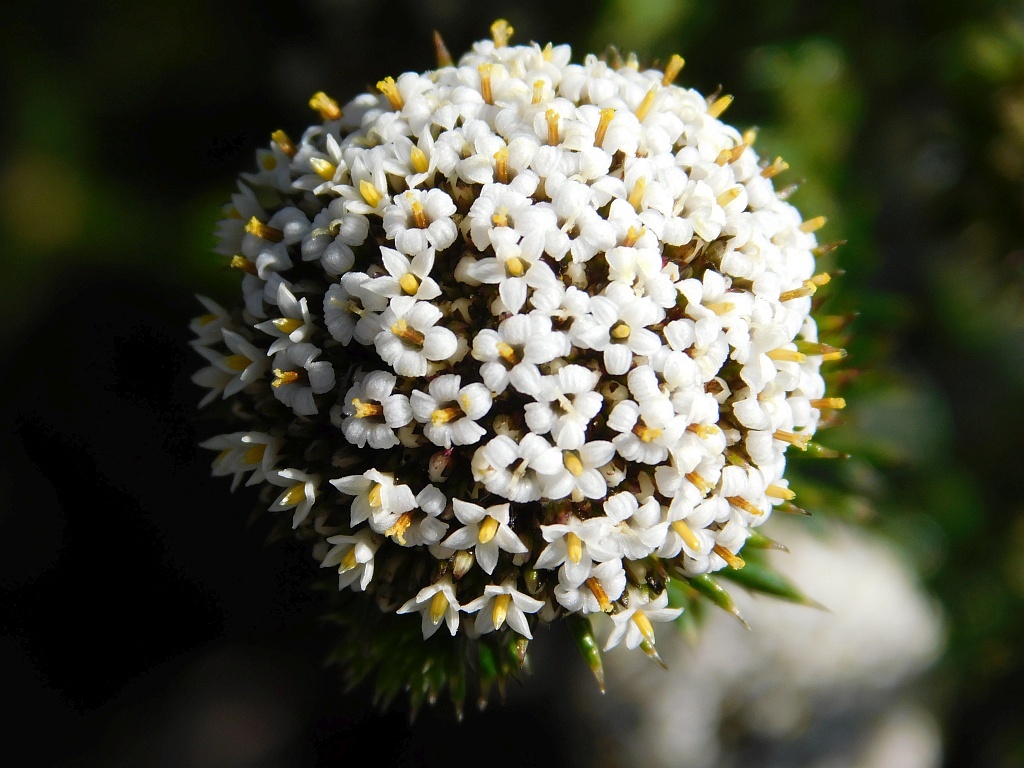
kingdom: Plantae
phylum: Tracheophyta
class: Magnoliopsida
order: Asterales
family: Asteraceae
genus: Stoebe
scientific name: Stoebe aethiopica
